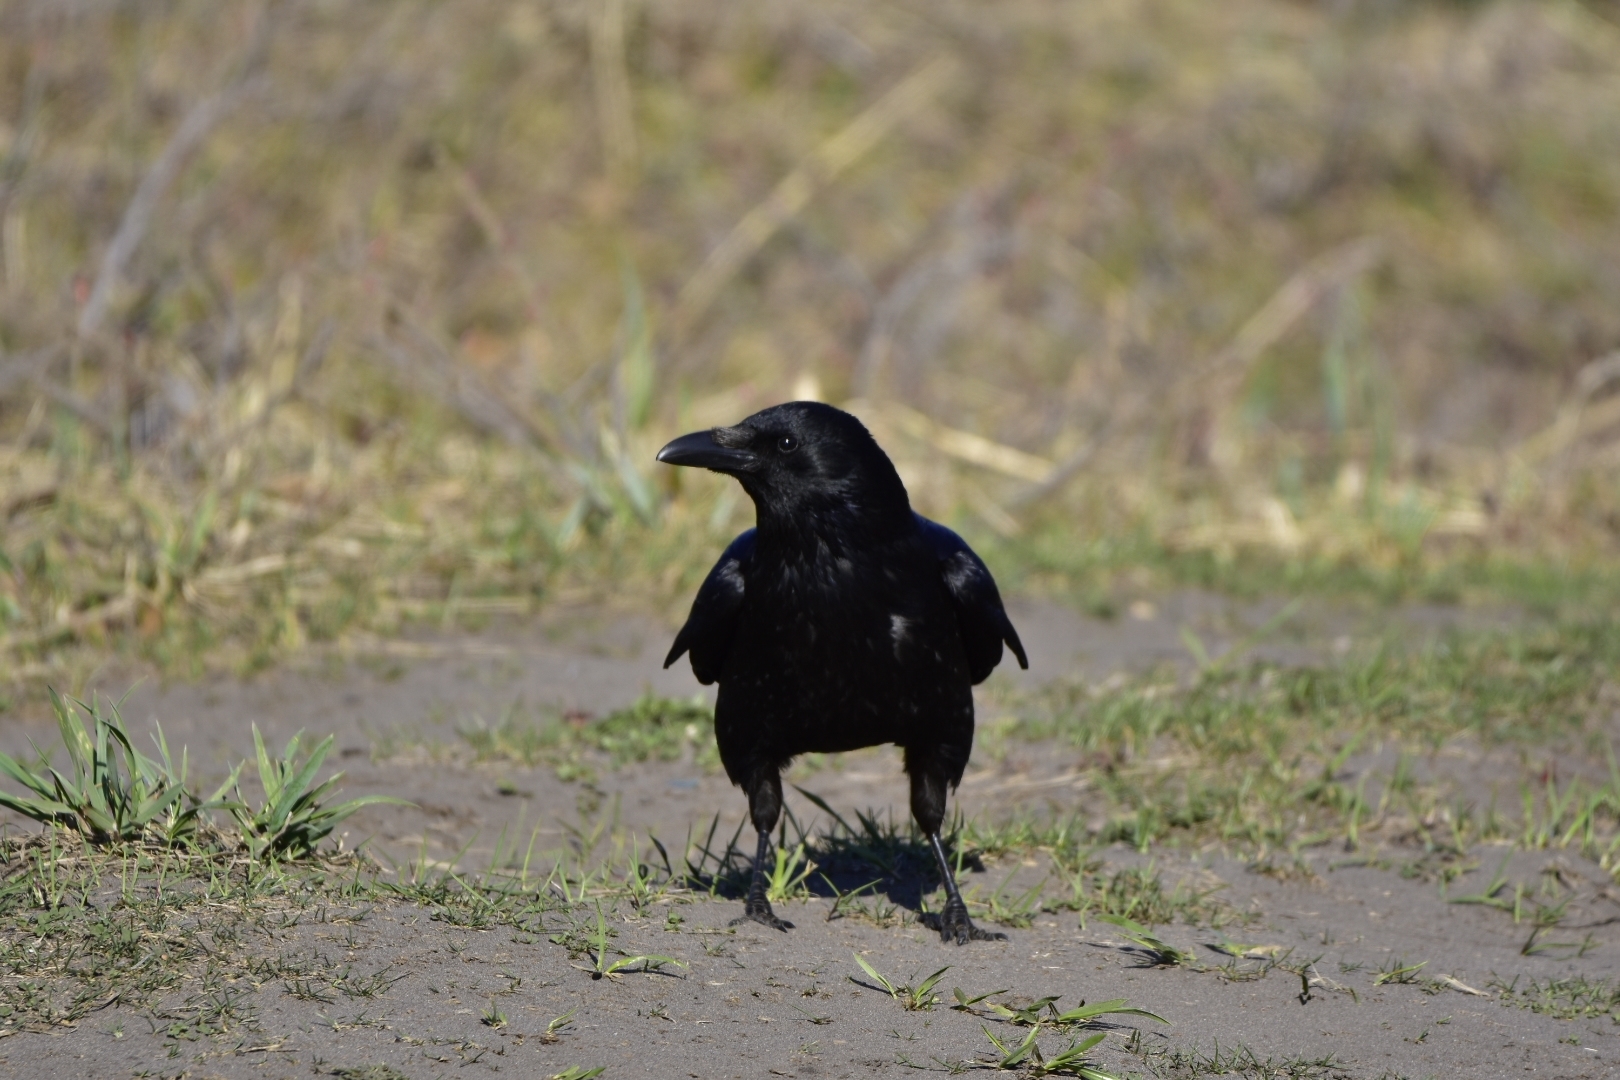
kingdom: Animalia
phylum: Chordata
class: Aves
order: Passeriformes
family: Corvidae
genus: Corvus
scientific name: Corvus corone
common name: Carrion crow
